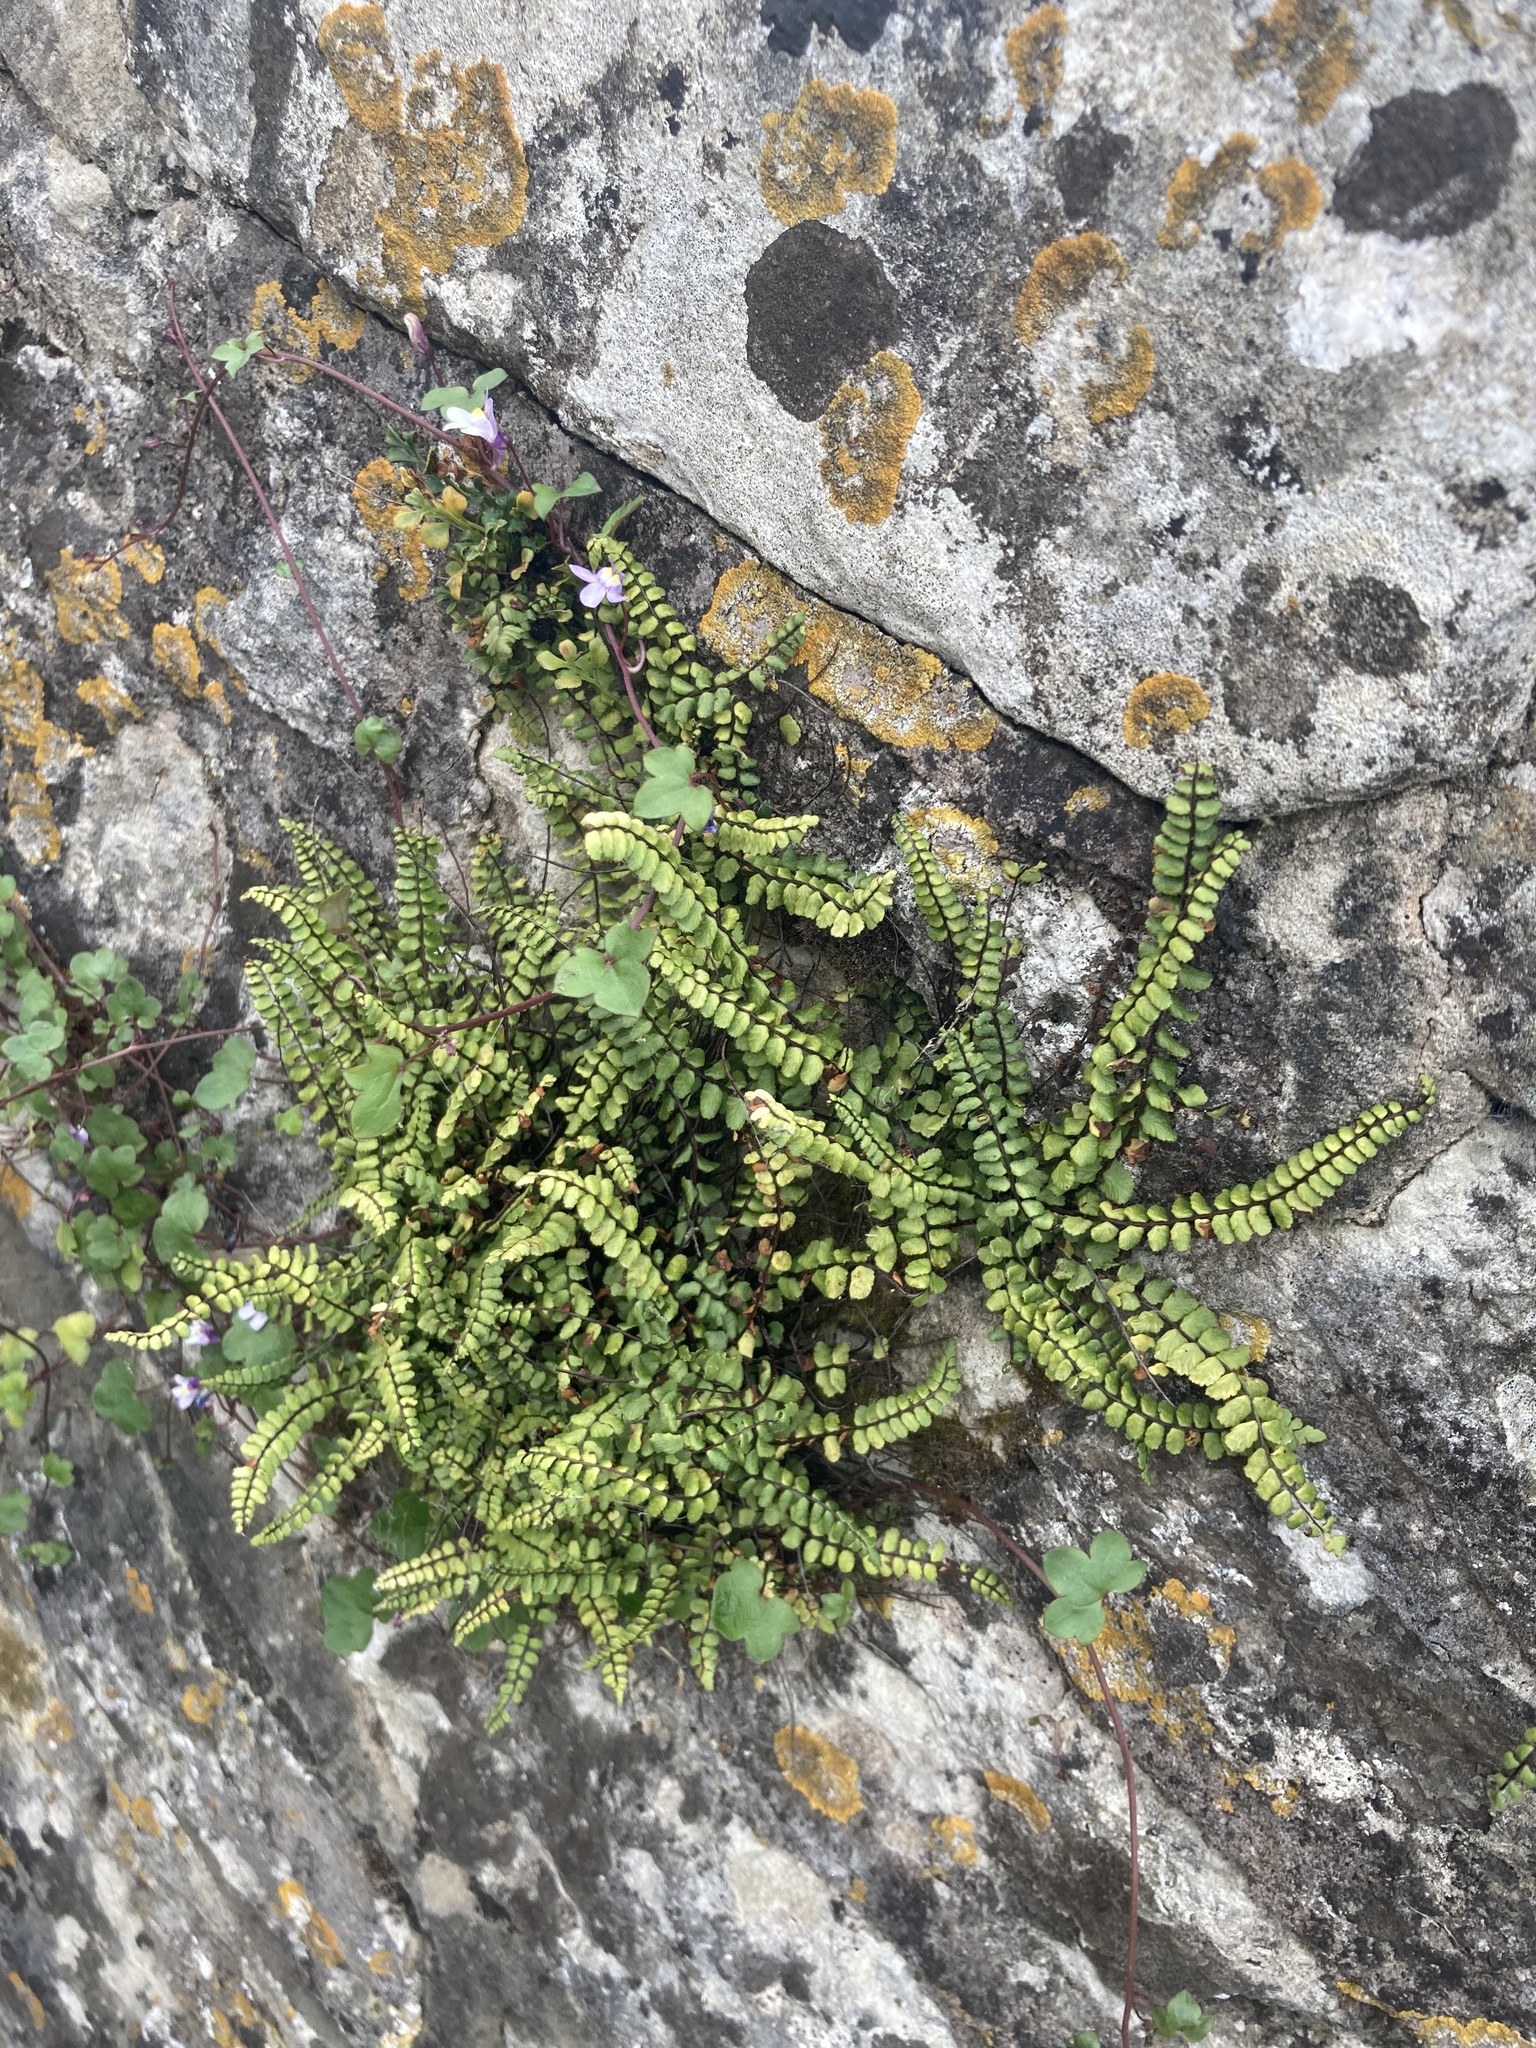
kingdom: Plantae
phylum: Tracheophyta
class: Polypodiopsida
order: Polypodiales
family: Aspleniaceae
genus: Asplenium
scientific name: Asplenium trichomanes
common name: Maidenhair spleenwort
